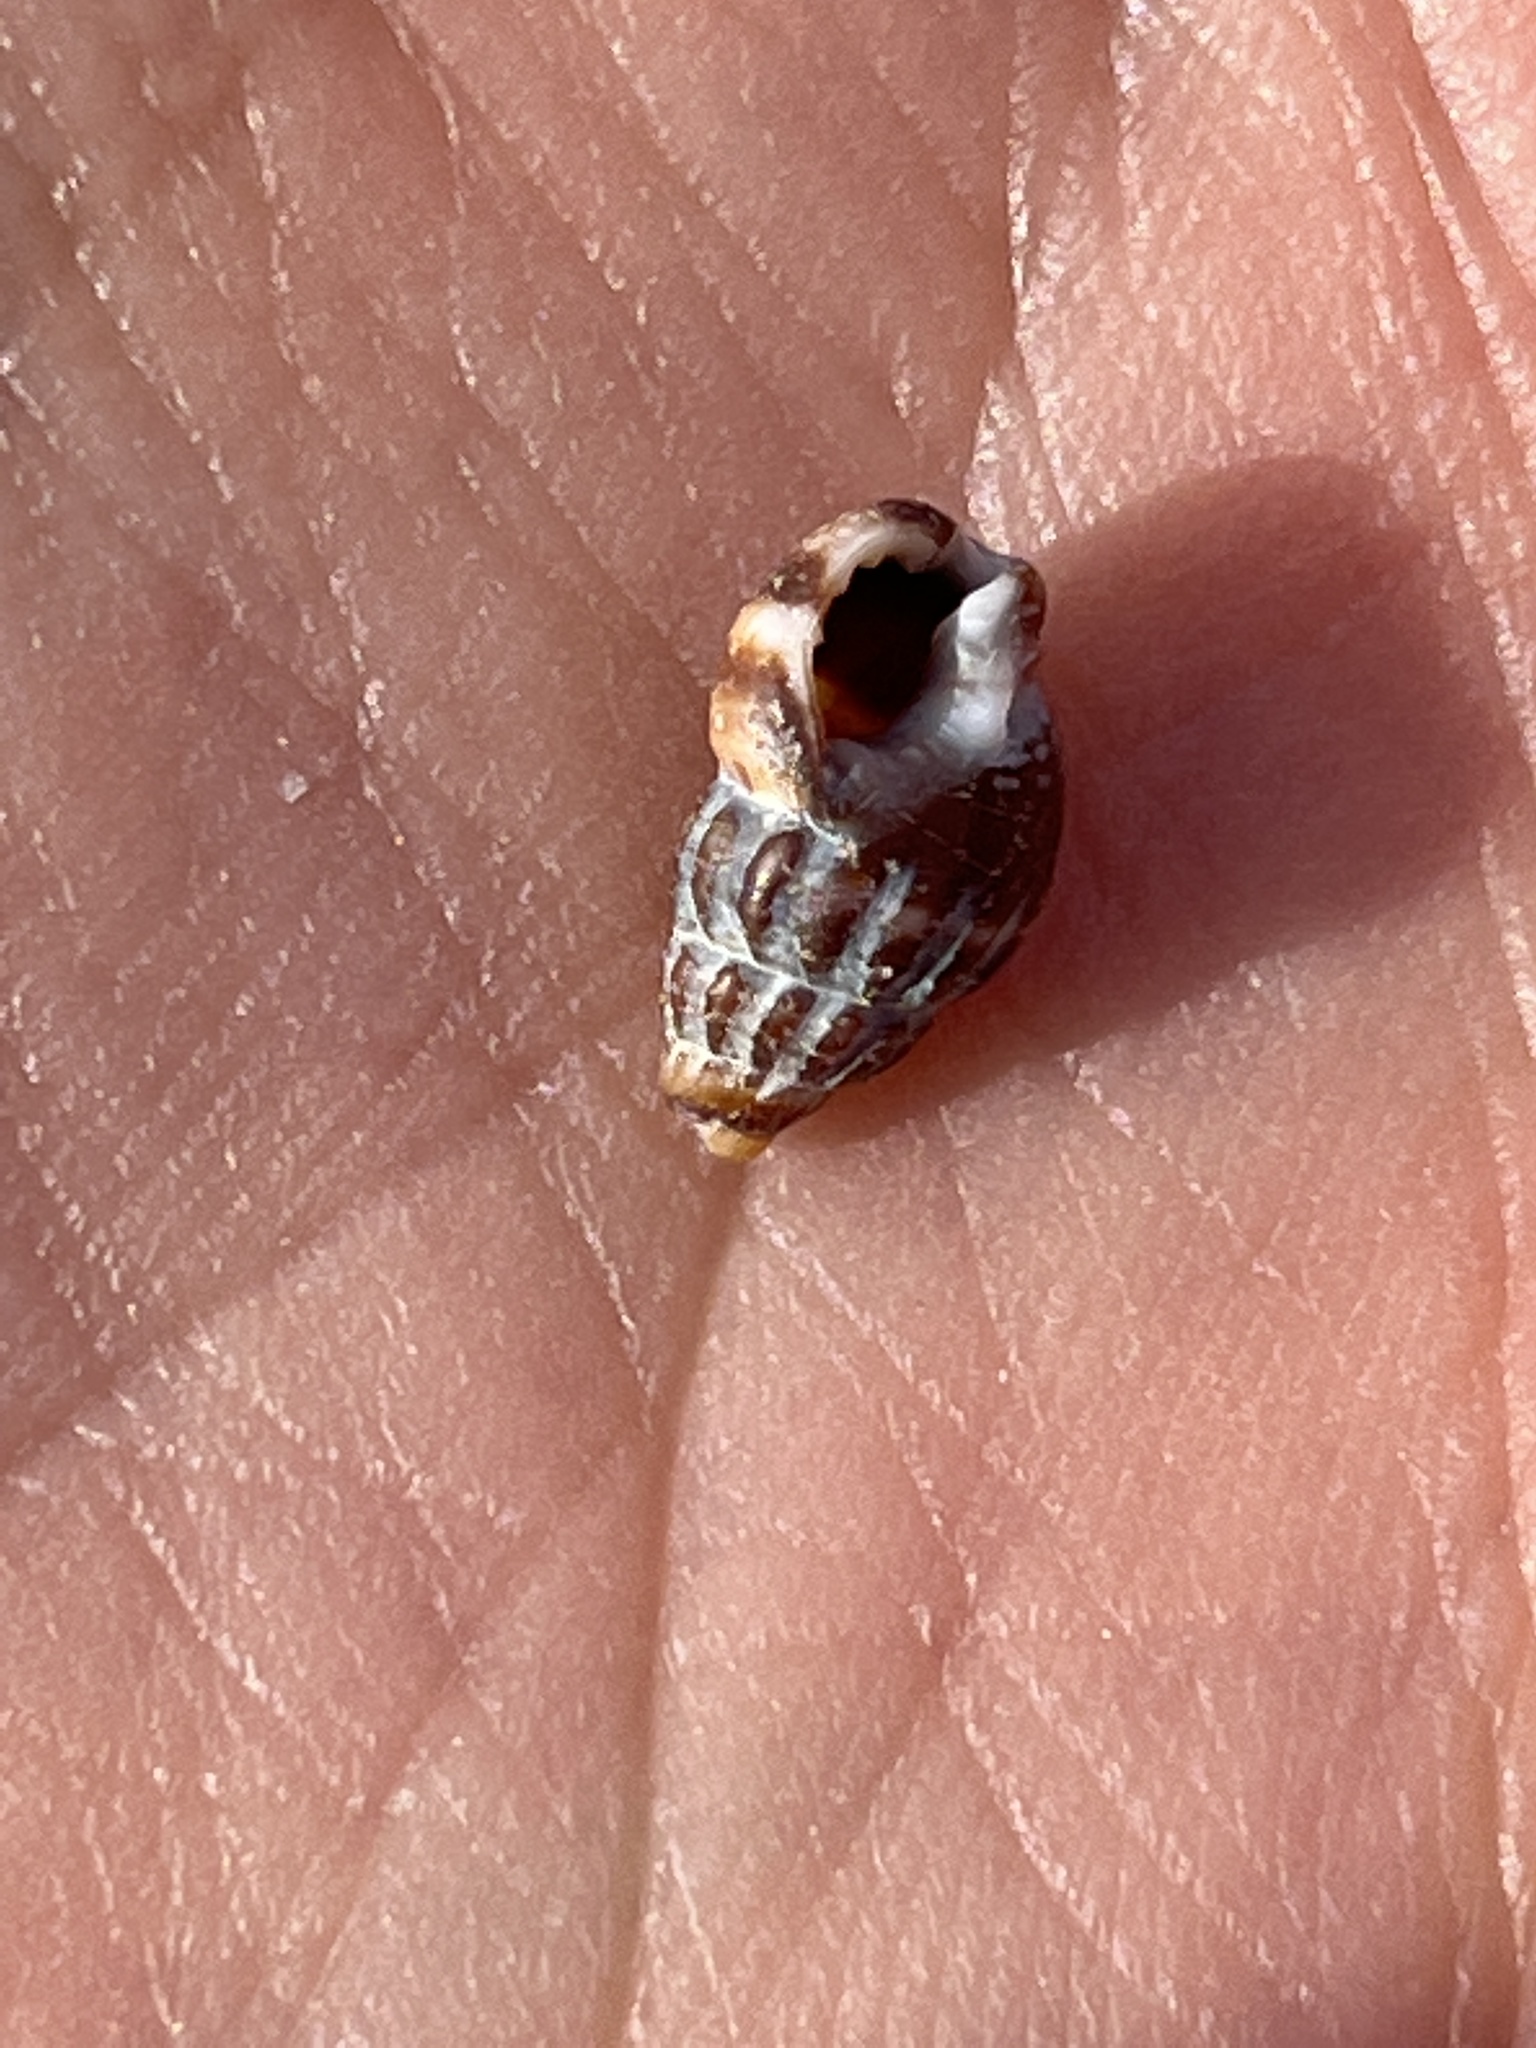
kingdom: Animalia
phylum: Mollusca
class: Gastropoda
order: Neogastropoda
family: Nassariidae
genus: Nassarius
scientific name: Nassarius fraterculus
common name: Japanese nassa
